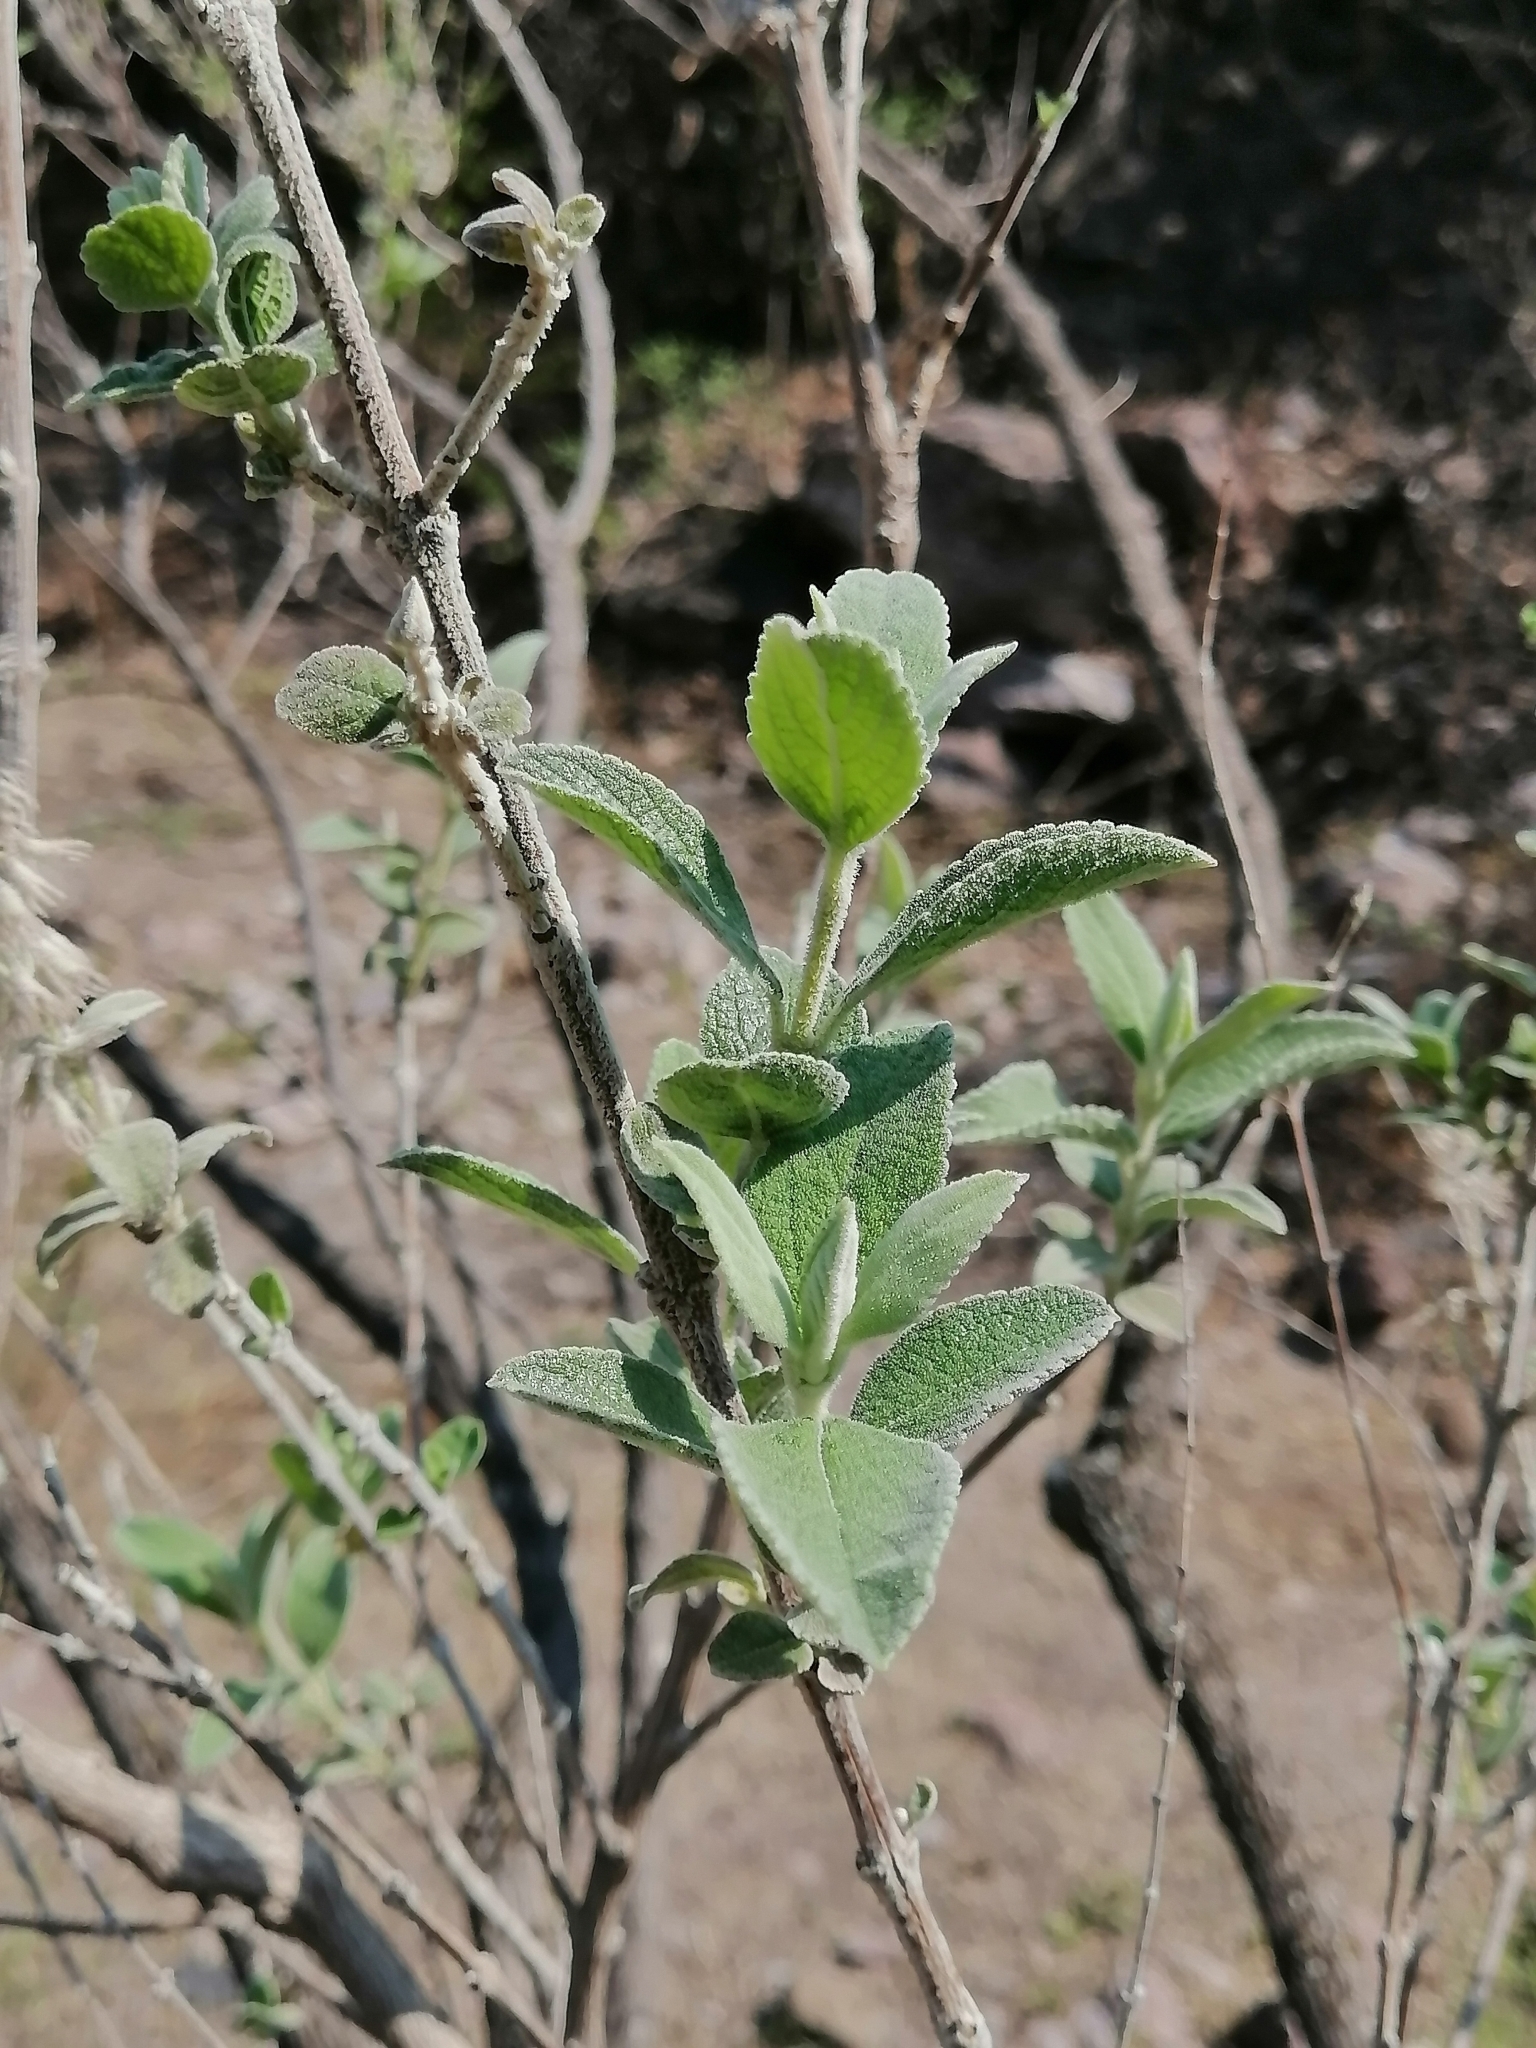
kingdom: Plantae
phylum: Tracheophyta
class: Magnoliopsida
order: Lamiales
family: Lamiaceae
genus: Condea
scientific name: Condea albida
